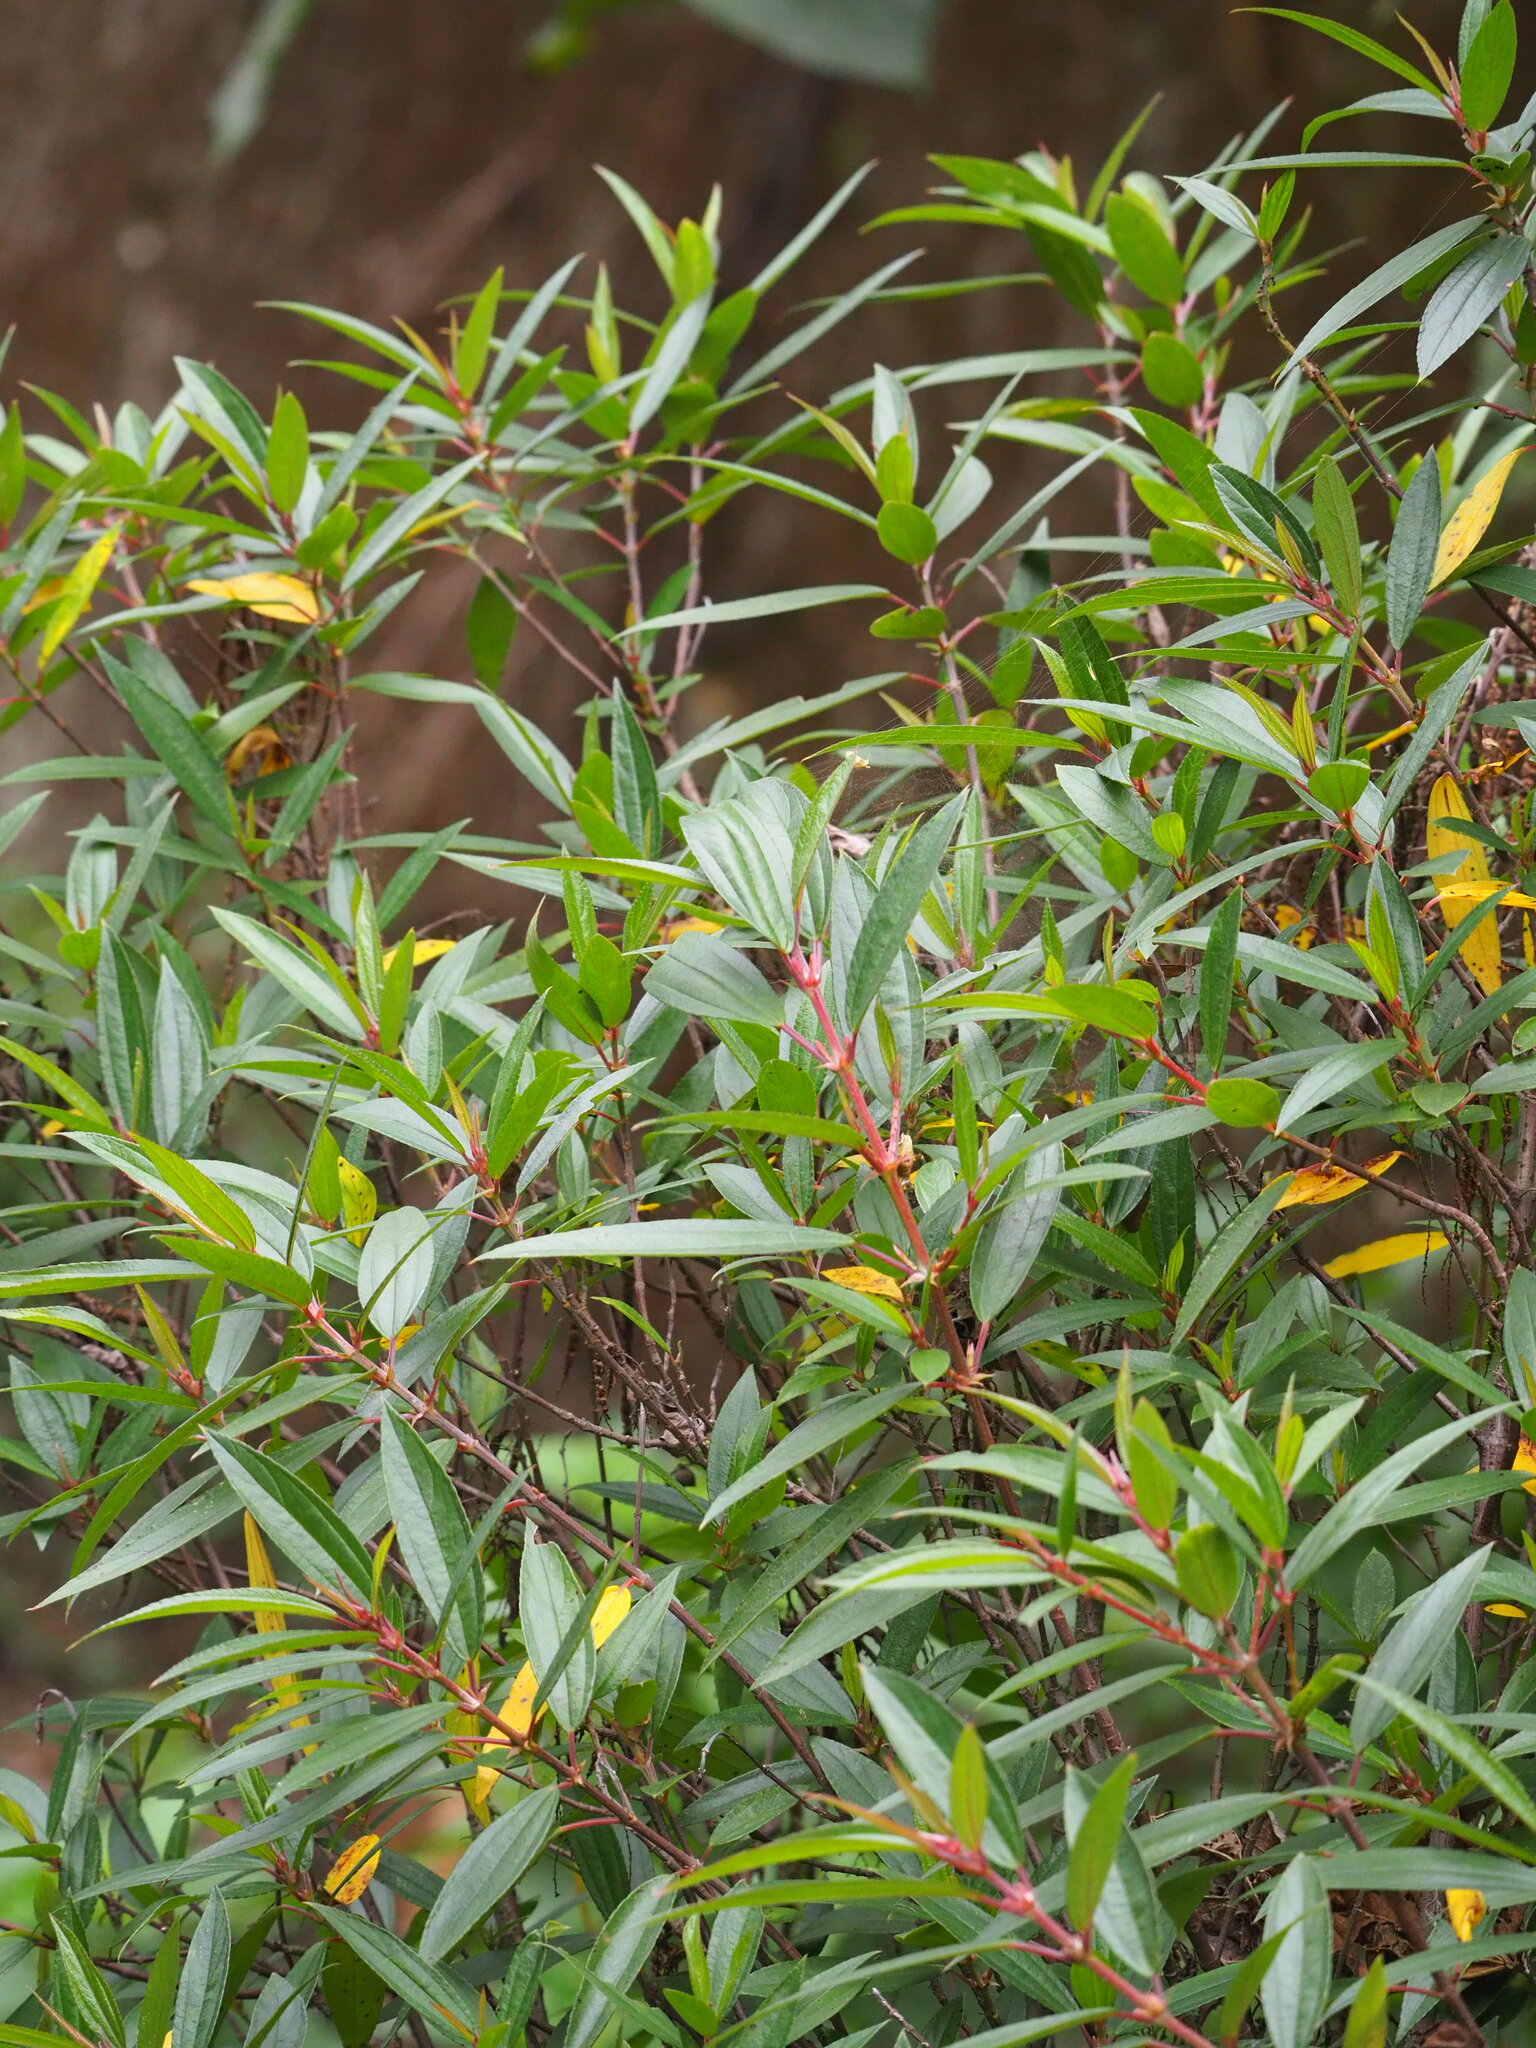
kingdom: Plantae
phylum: Tracheophyta
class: Magnoliopsida
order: Rosales
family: Urticaceae
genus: Boehmeria
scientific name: Boehmeria densiflora
